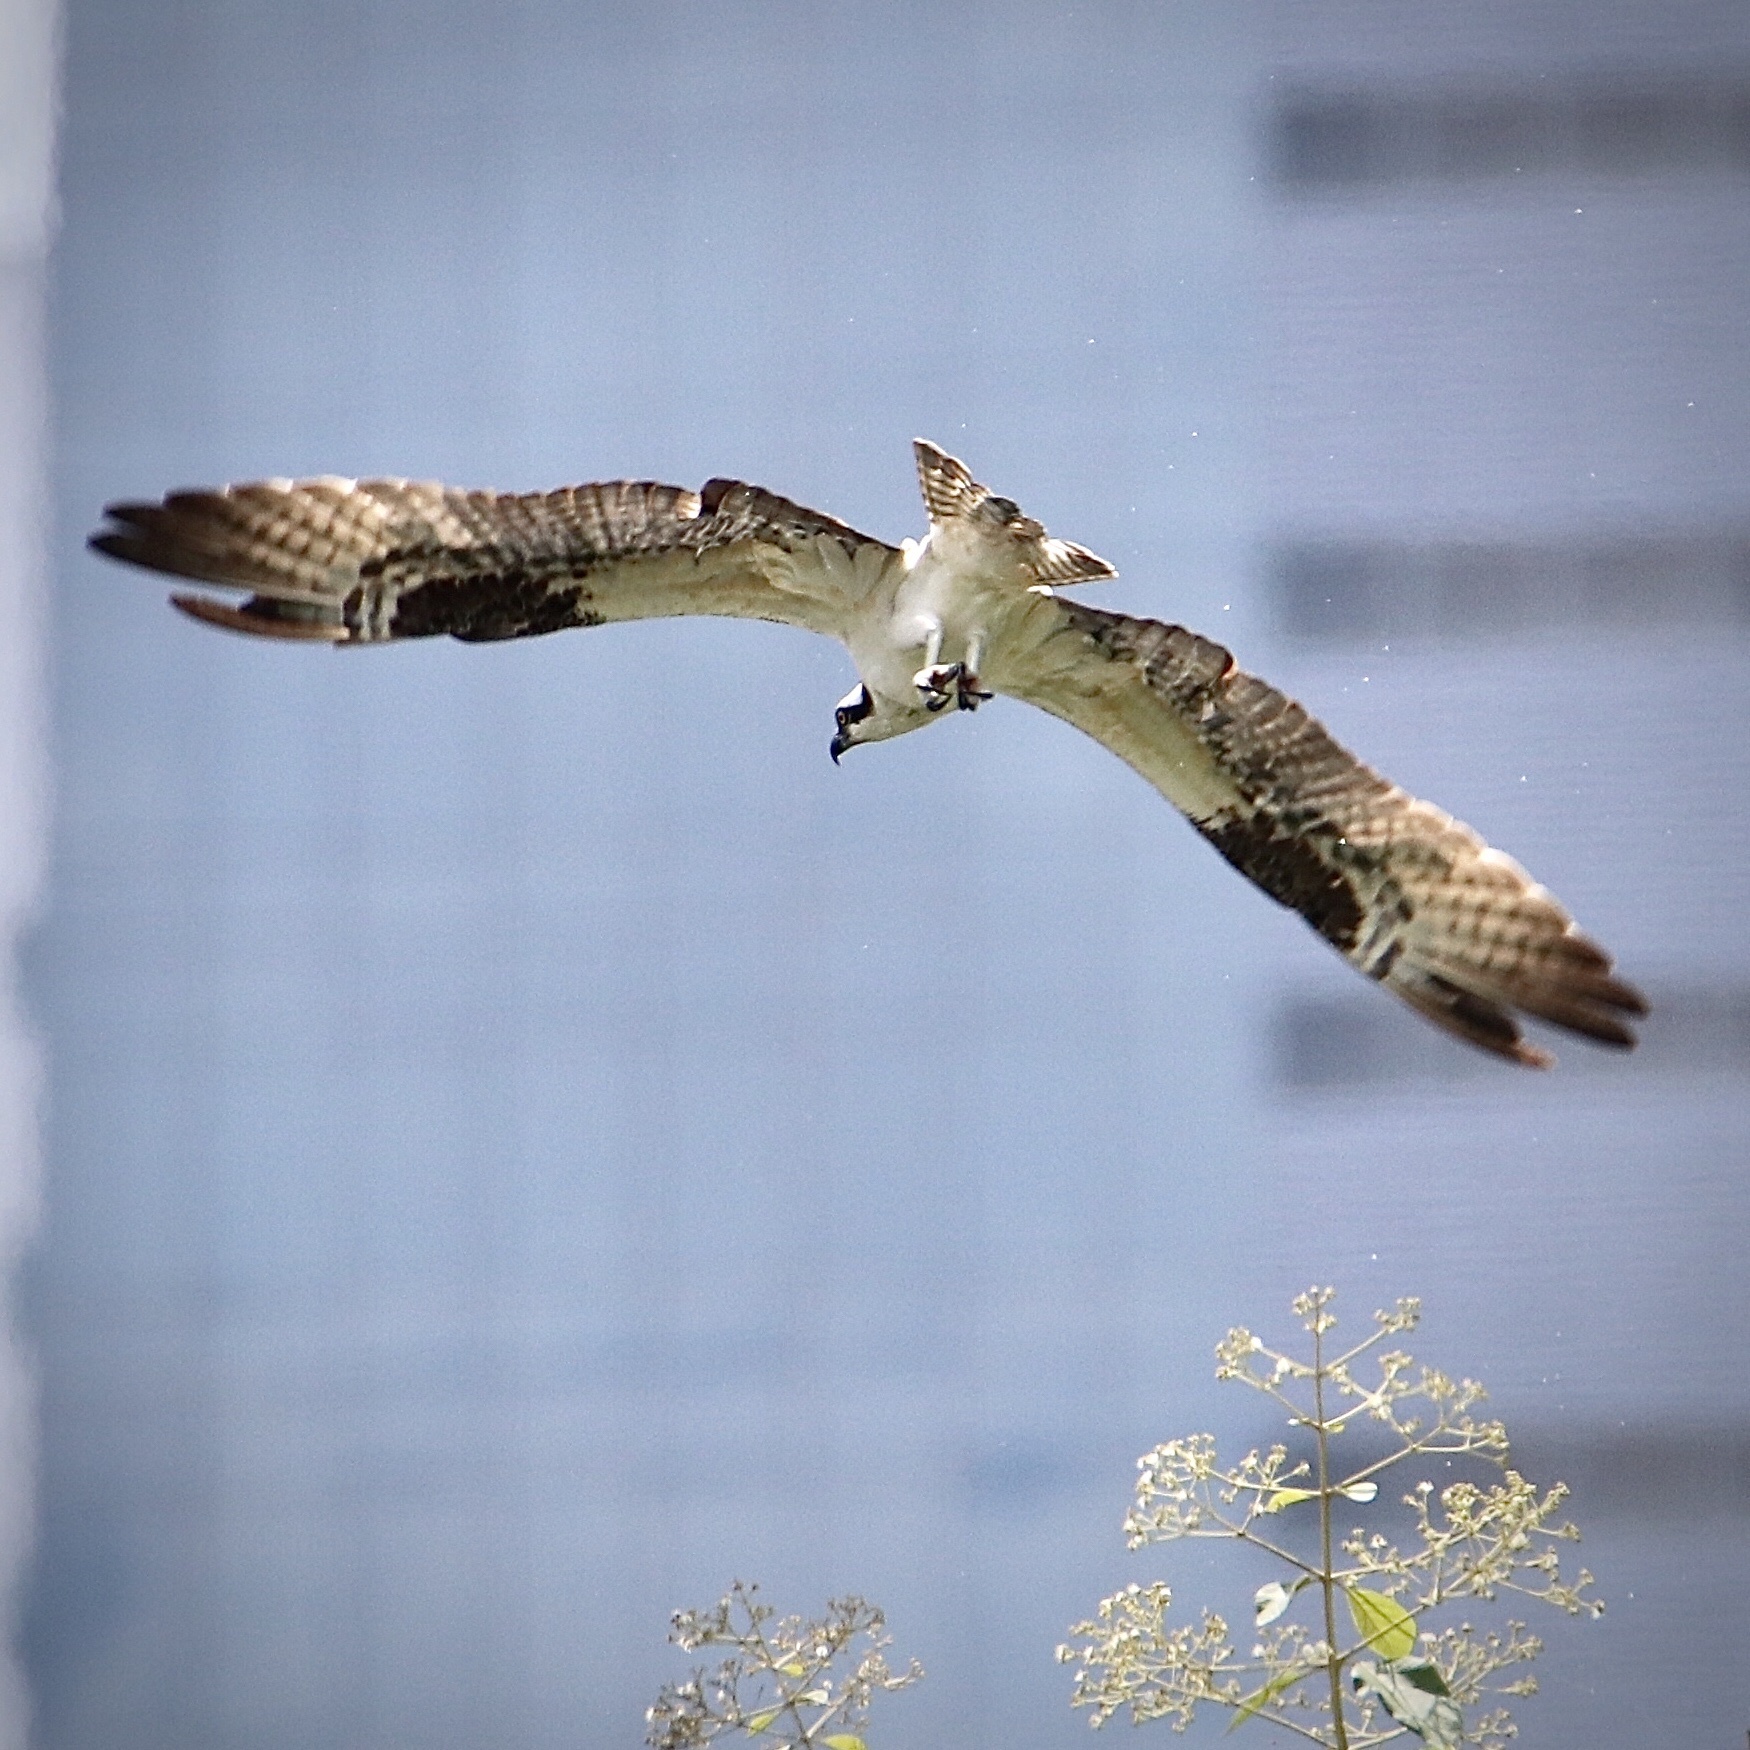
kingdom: Animalia
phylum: Chordata
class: Aves
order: Accipitriformes
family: Pandionidae
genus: Pandion
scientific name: Pandion haliaetus
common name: Osprey
